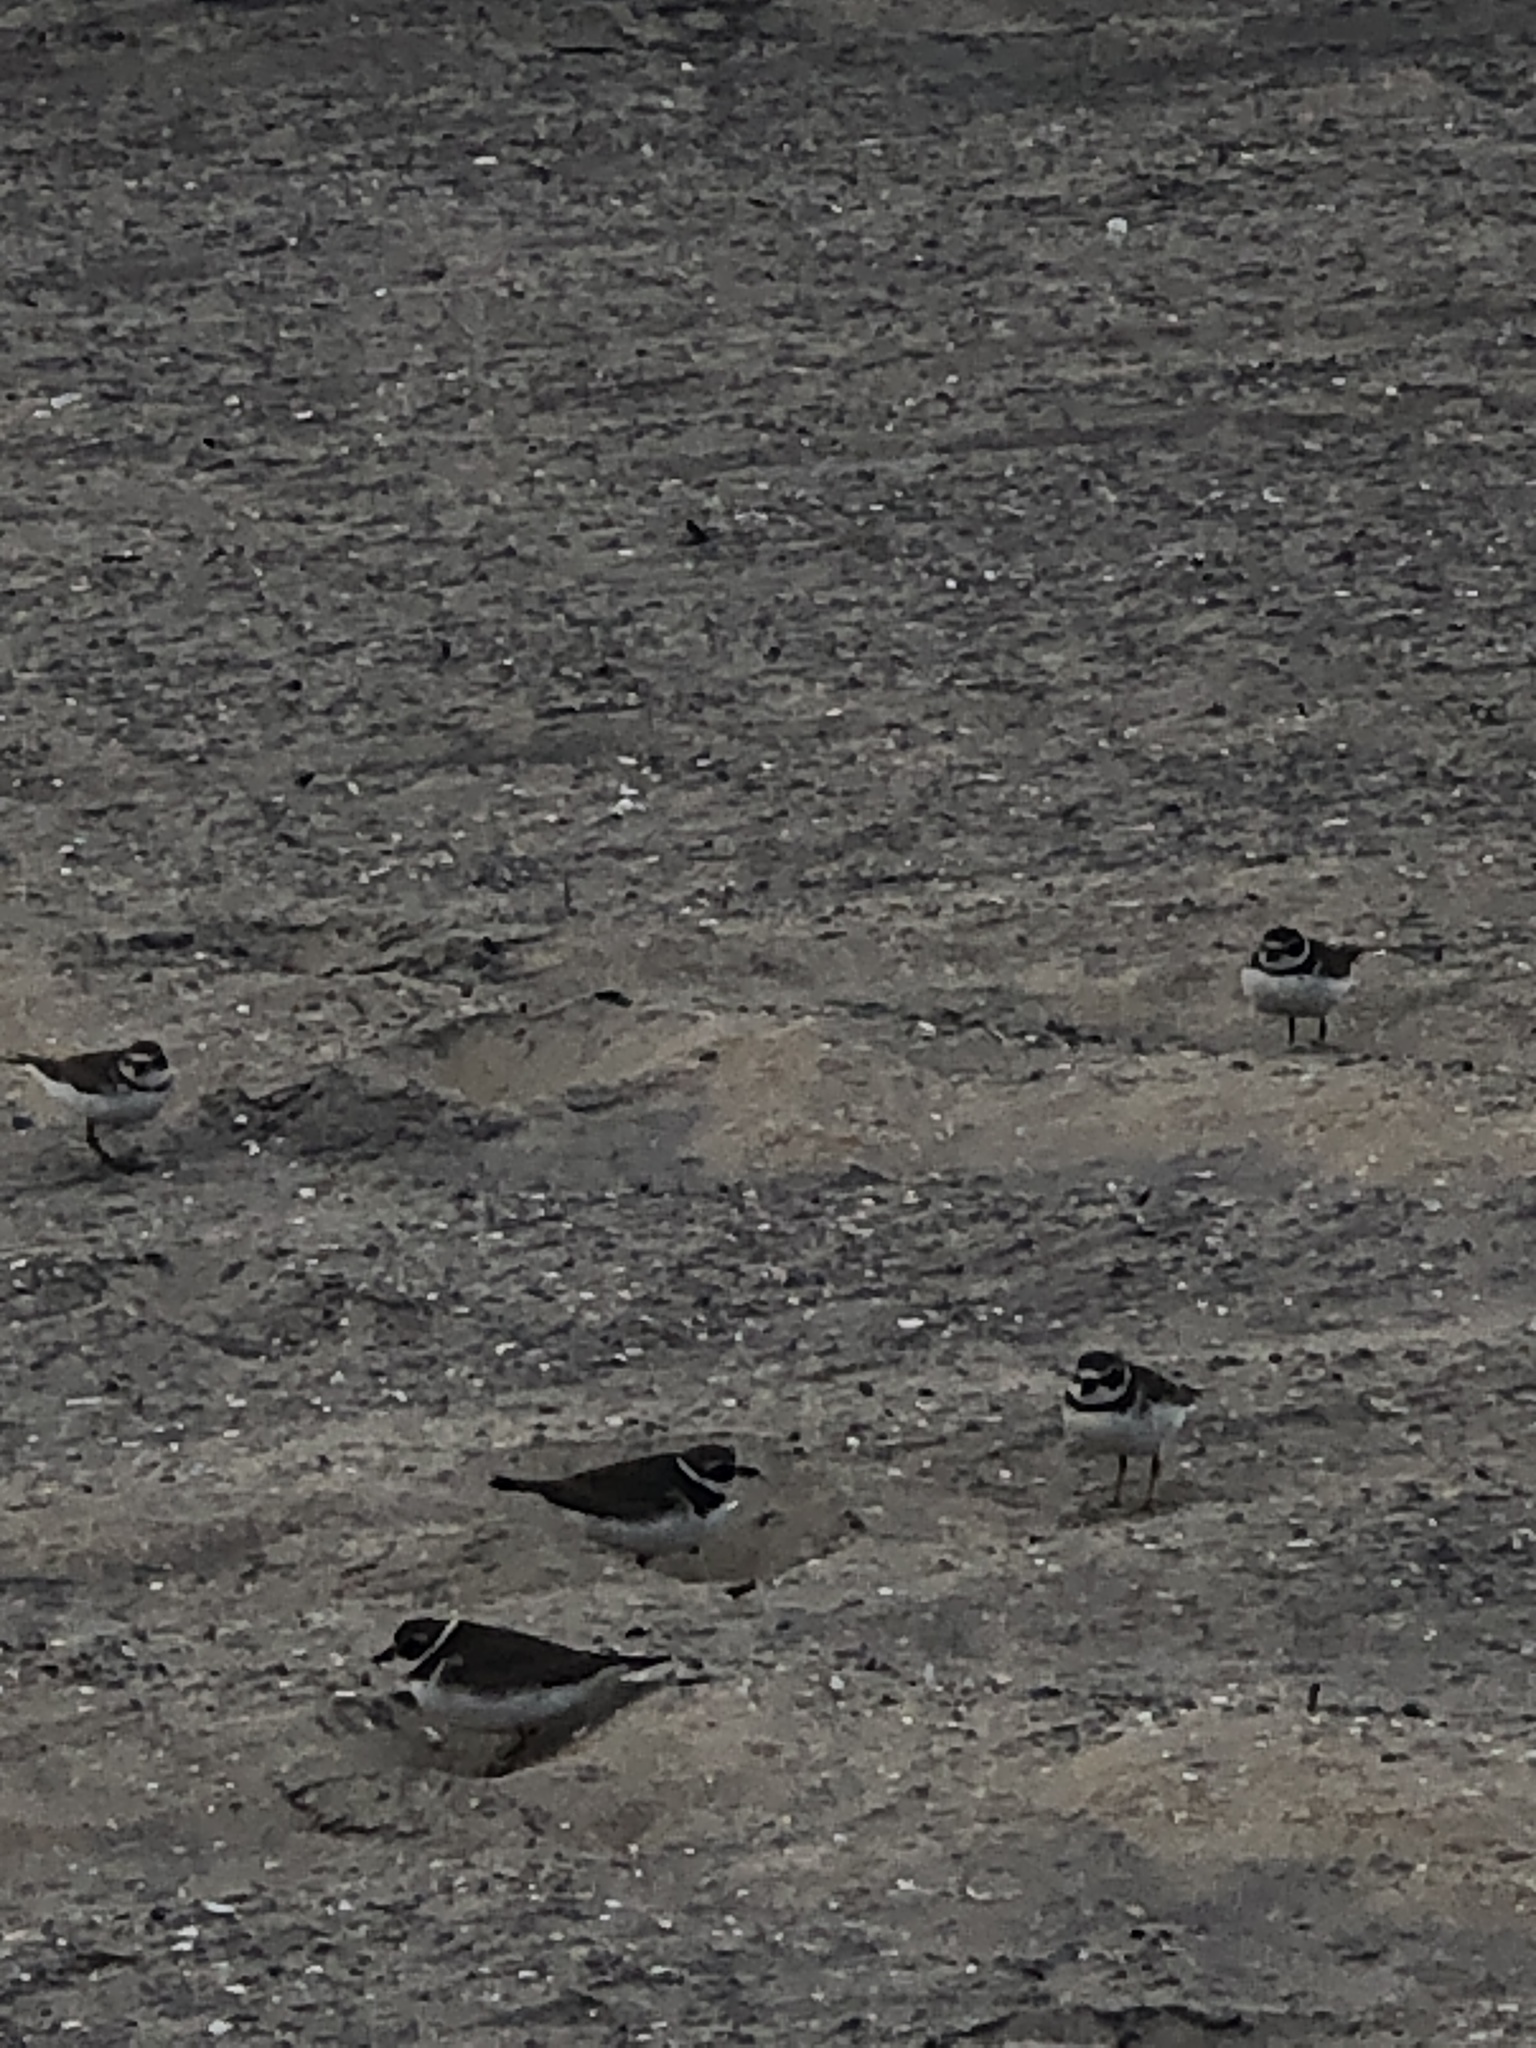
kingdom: Animalia
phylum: Chordata
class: Aves
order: Charadriiformes
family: Charadriidae
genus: Charadrius
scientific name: Charadrius semipalmatus
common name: Semipalmated plover
